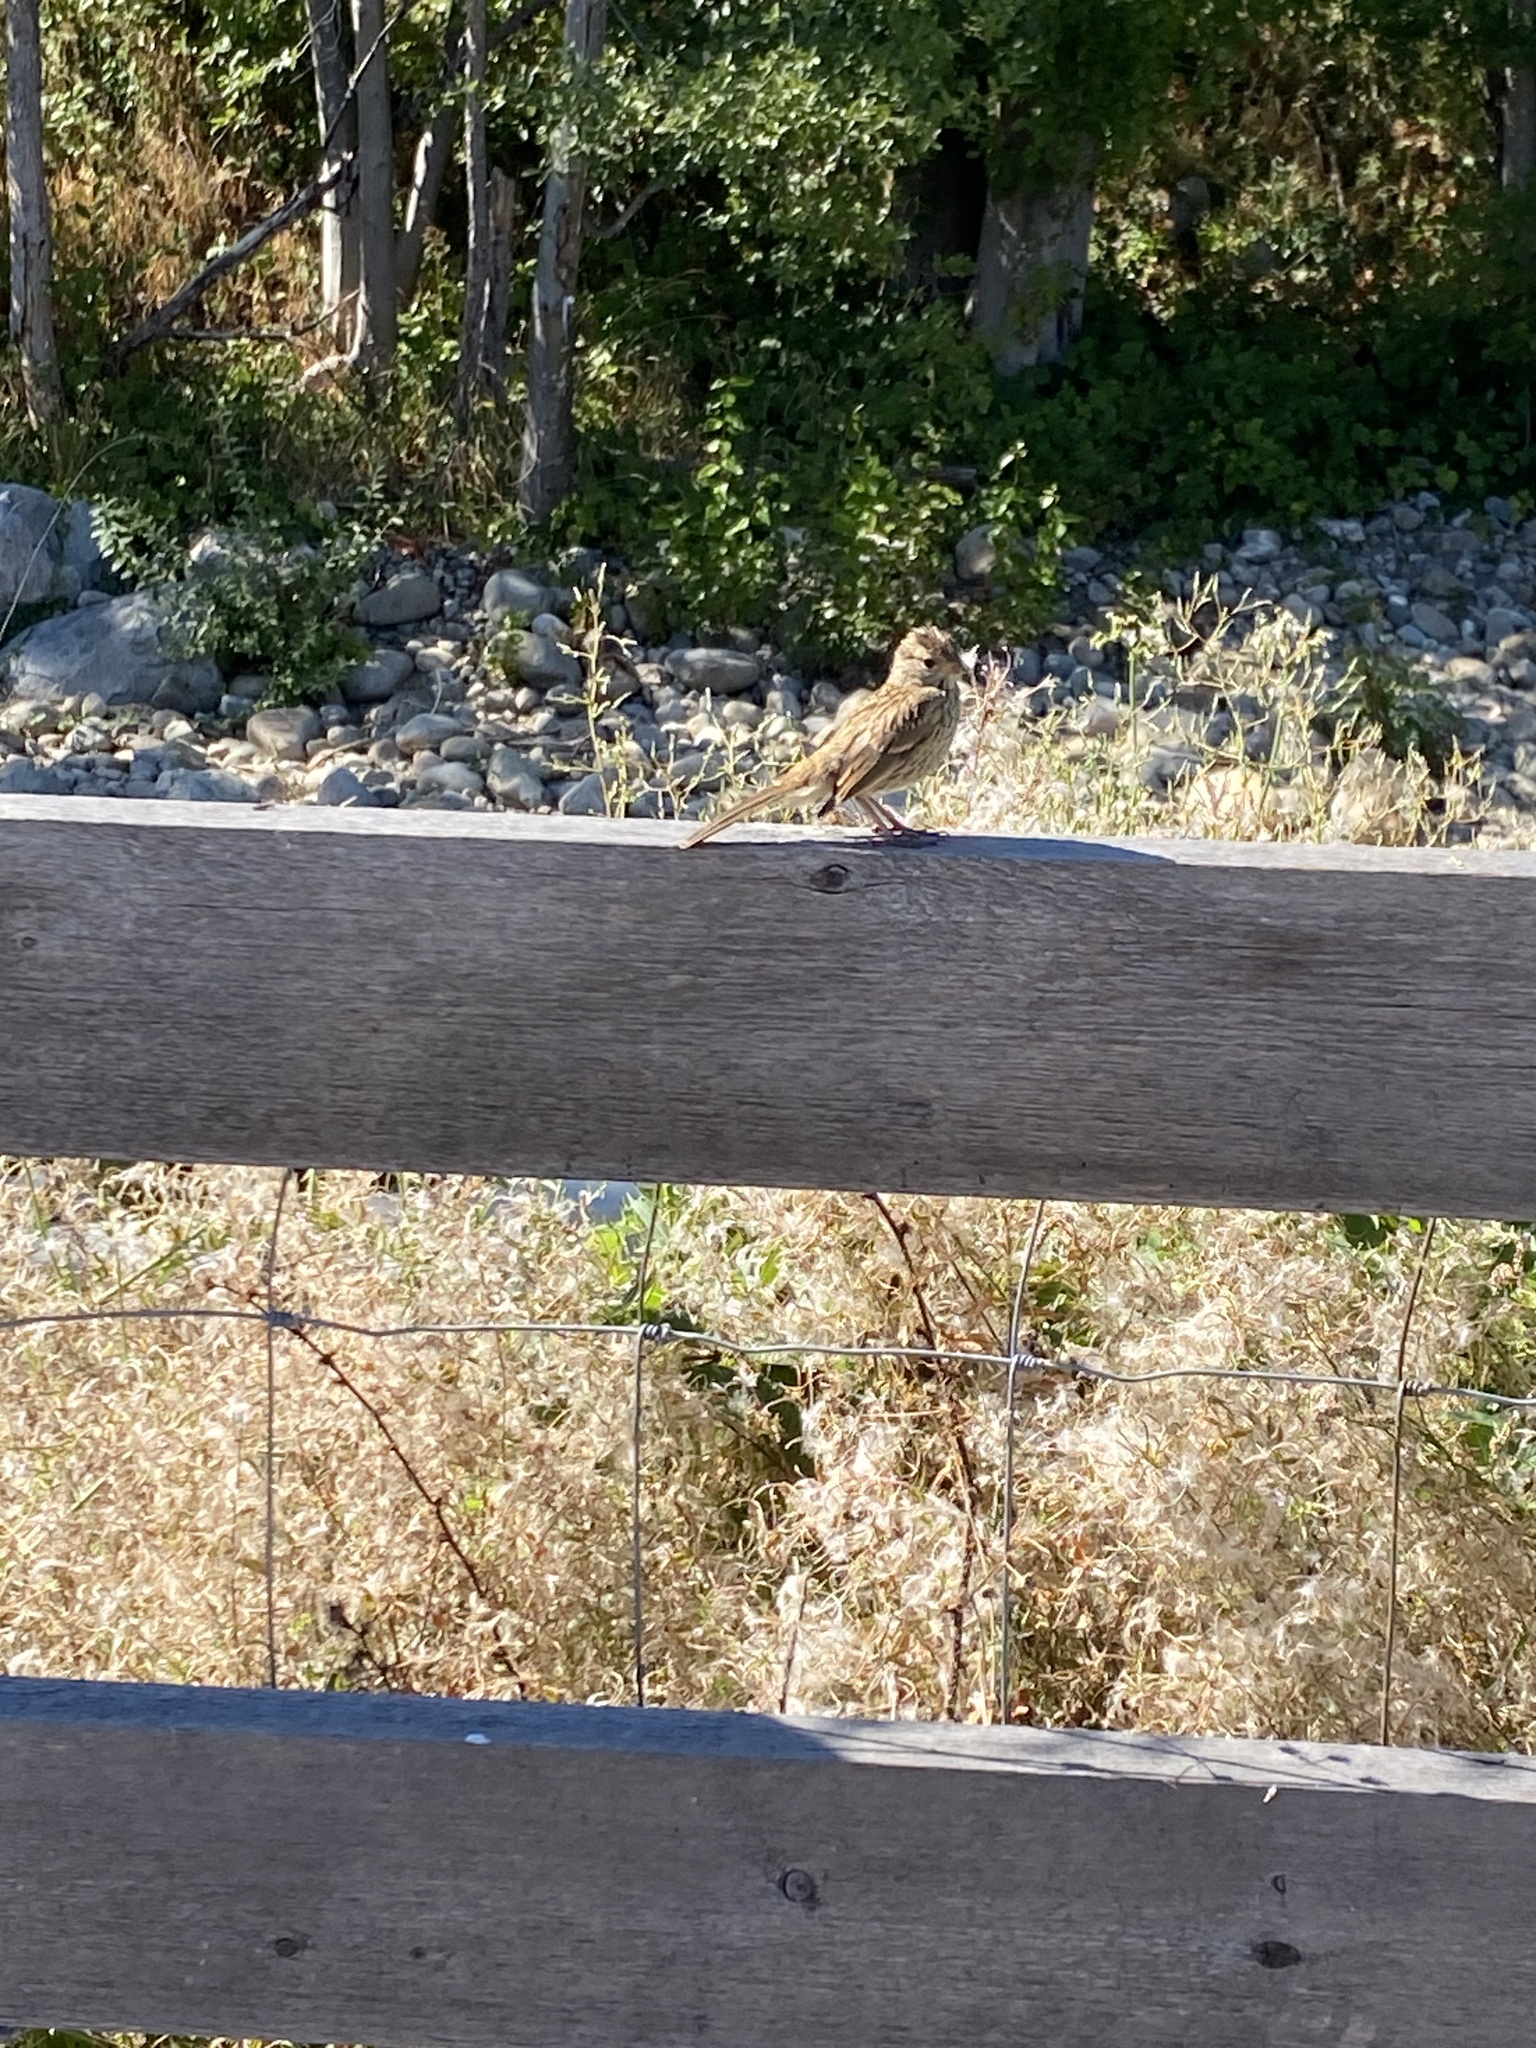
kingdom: Animalia
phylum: Chordata
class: Aves
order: Passeriformes
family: Passerellidae
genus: Zonotrichia
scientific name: Zonotrichia leucophrys
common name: White-crowned sparrow
